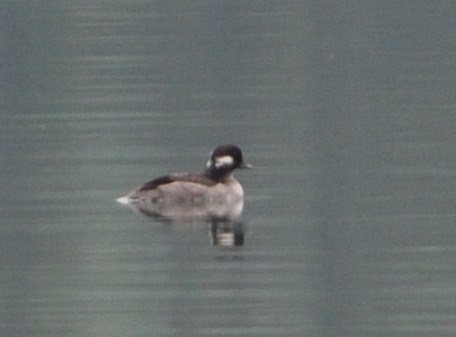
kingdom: Animalia
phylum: Chordata
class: Aves
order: Anseriformes
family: Anatidae
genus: Bucephala
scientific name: Bucephala albeola
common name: Bufflehead
